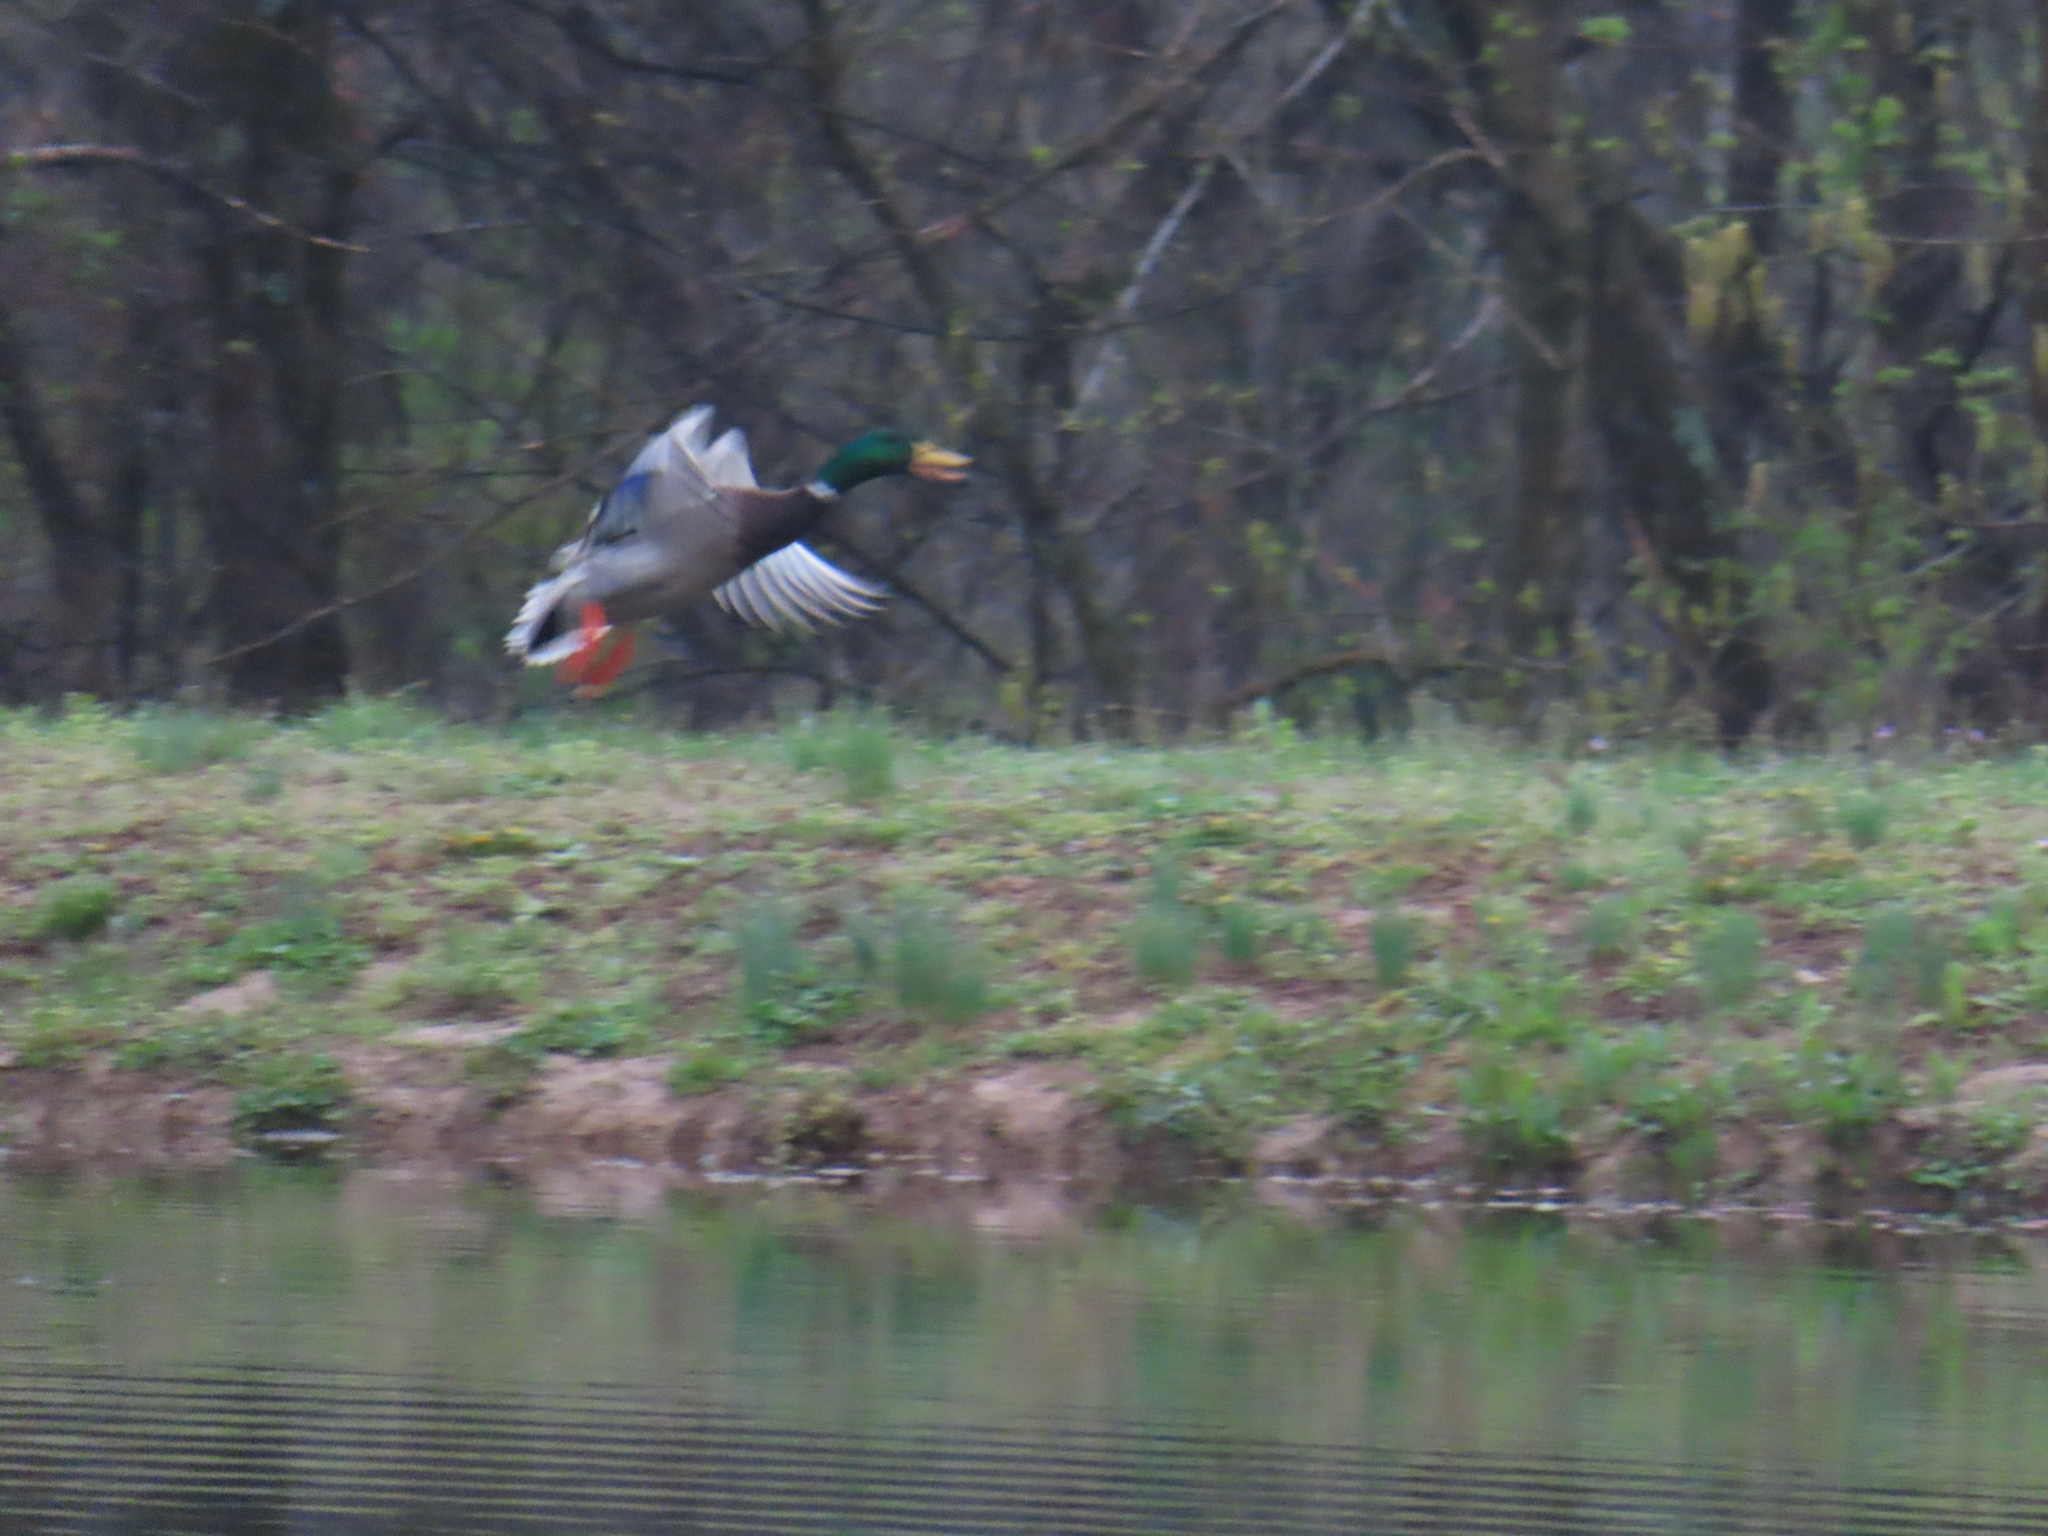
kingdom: Animalia
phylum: Chordata
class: Aves
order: Anseriformes
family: Anatidae
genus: Anas
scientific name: Anas platyrhynchos
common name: Mallard
